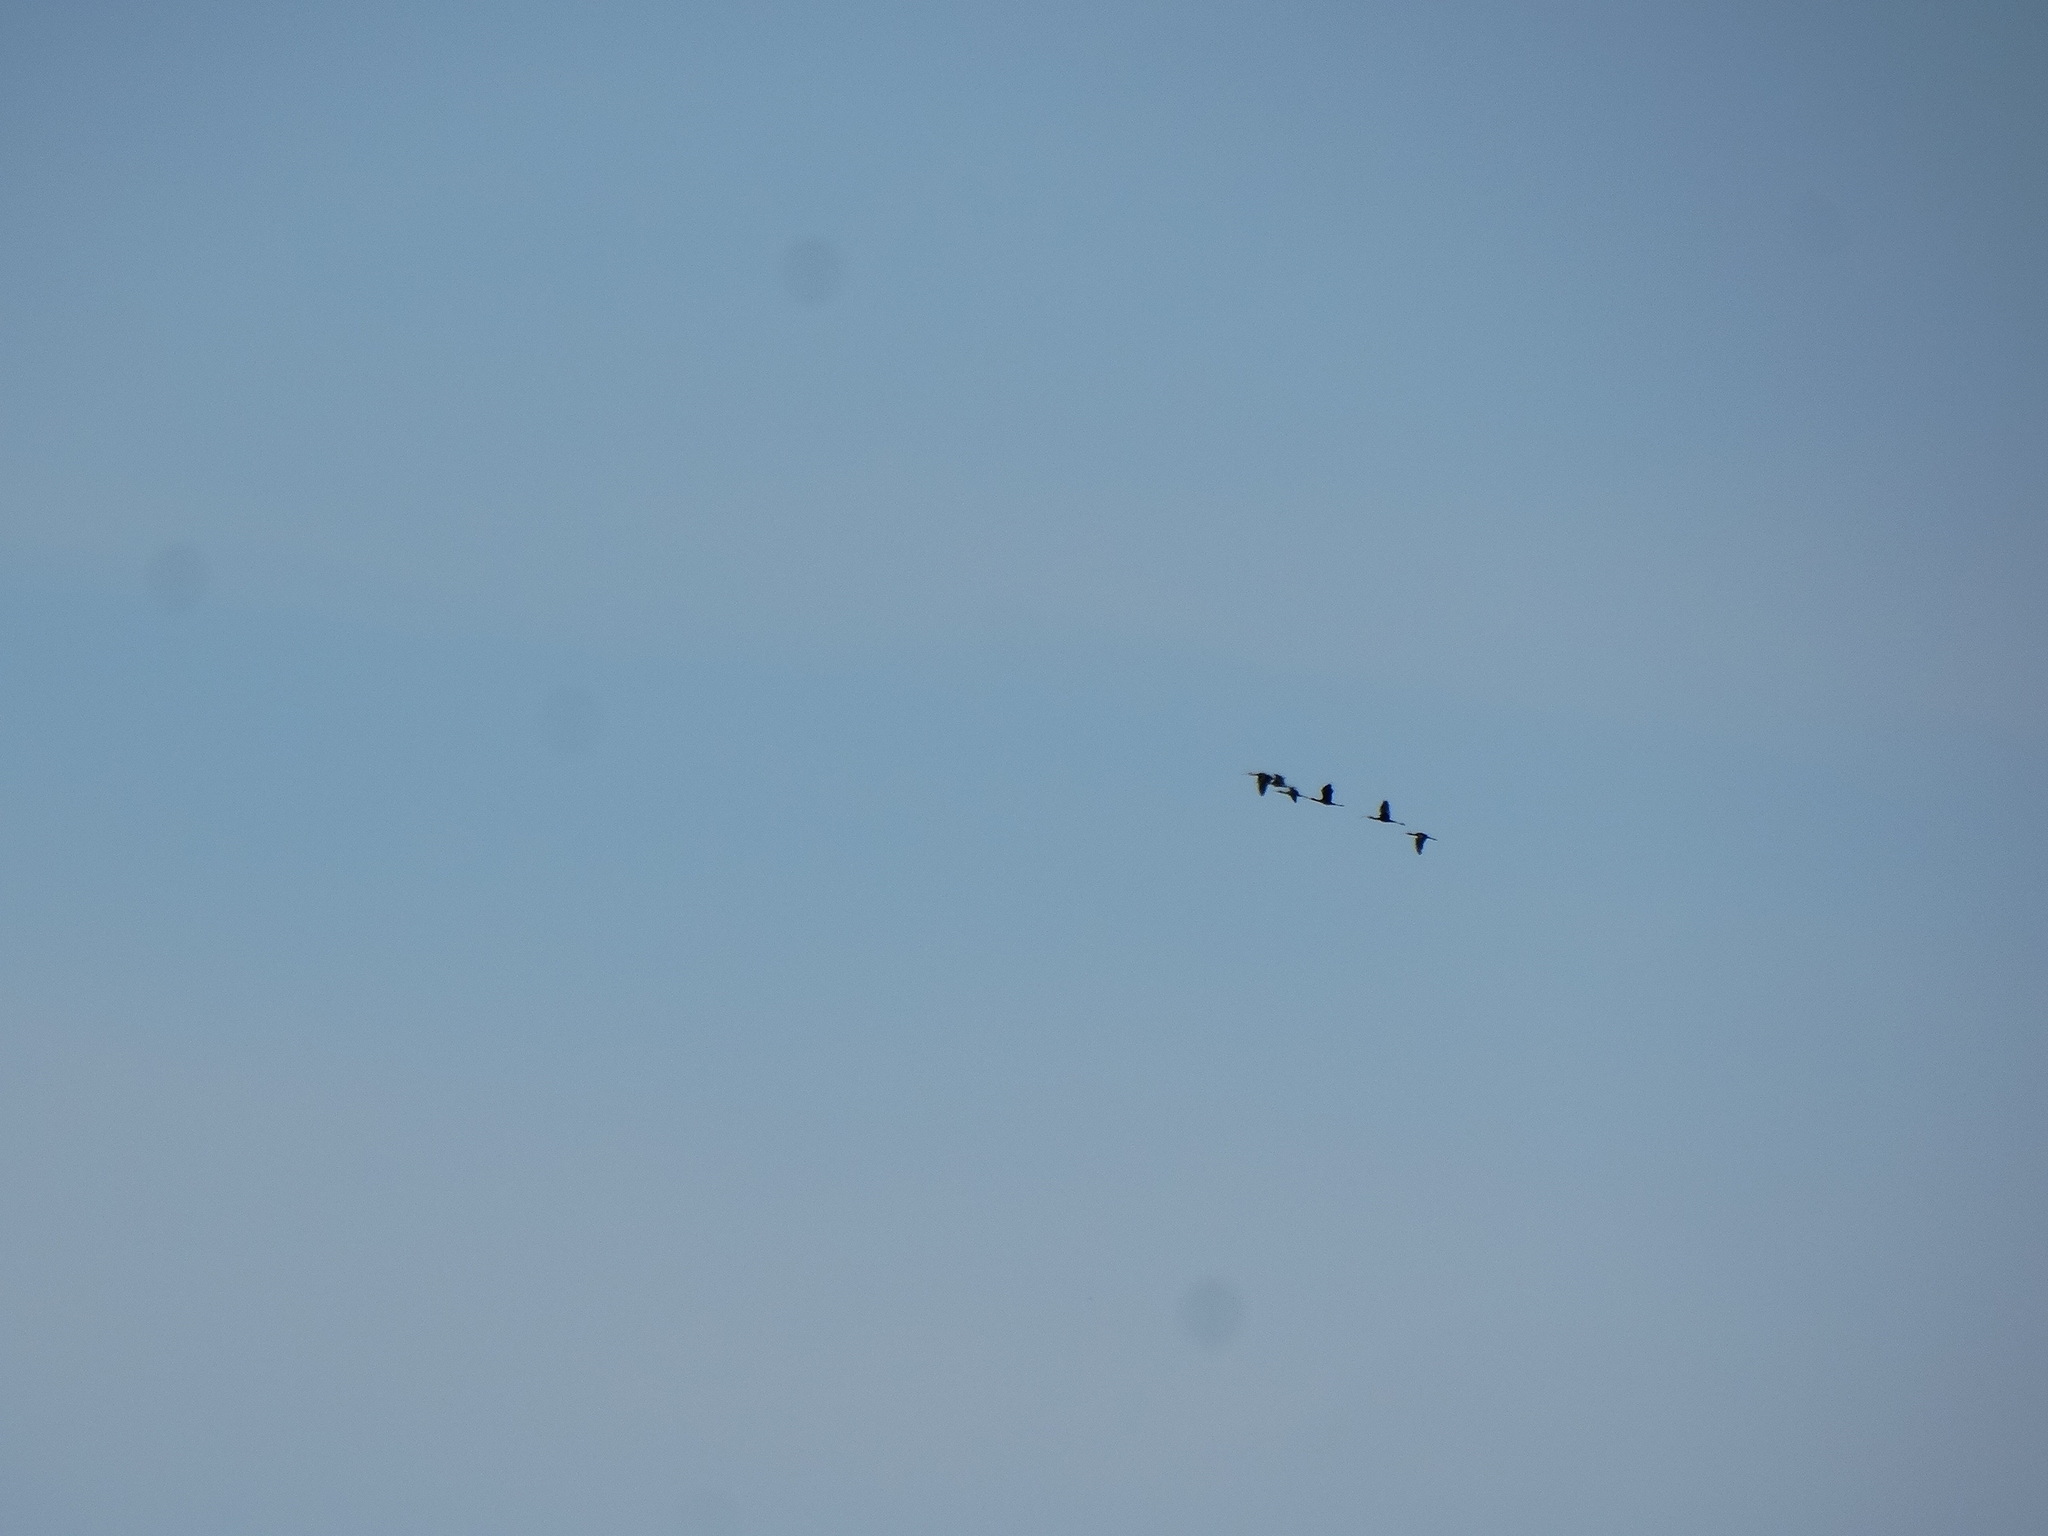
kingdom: Animalia
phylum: Chordata
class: Aves
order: Pelecaniformes
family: Threskiornithidae
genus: Plegadis
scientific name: Plegadis chihi
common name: White-faced ibis
